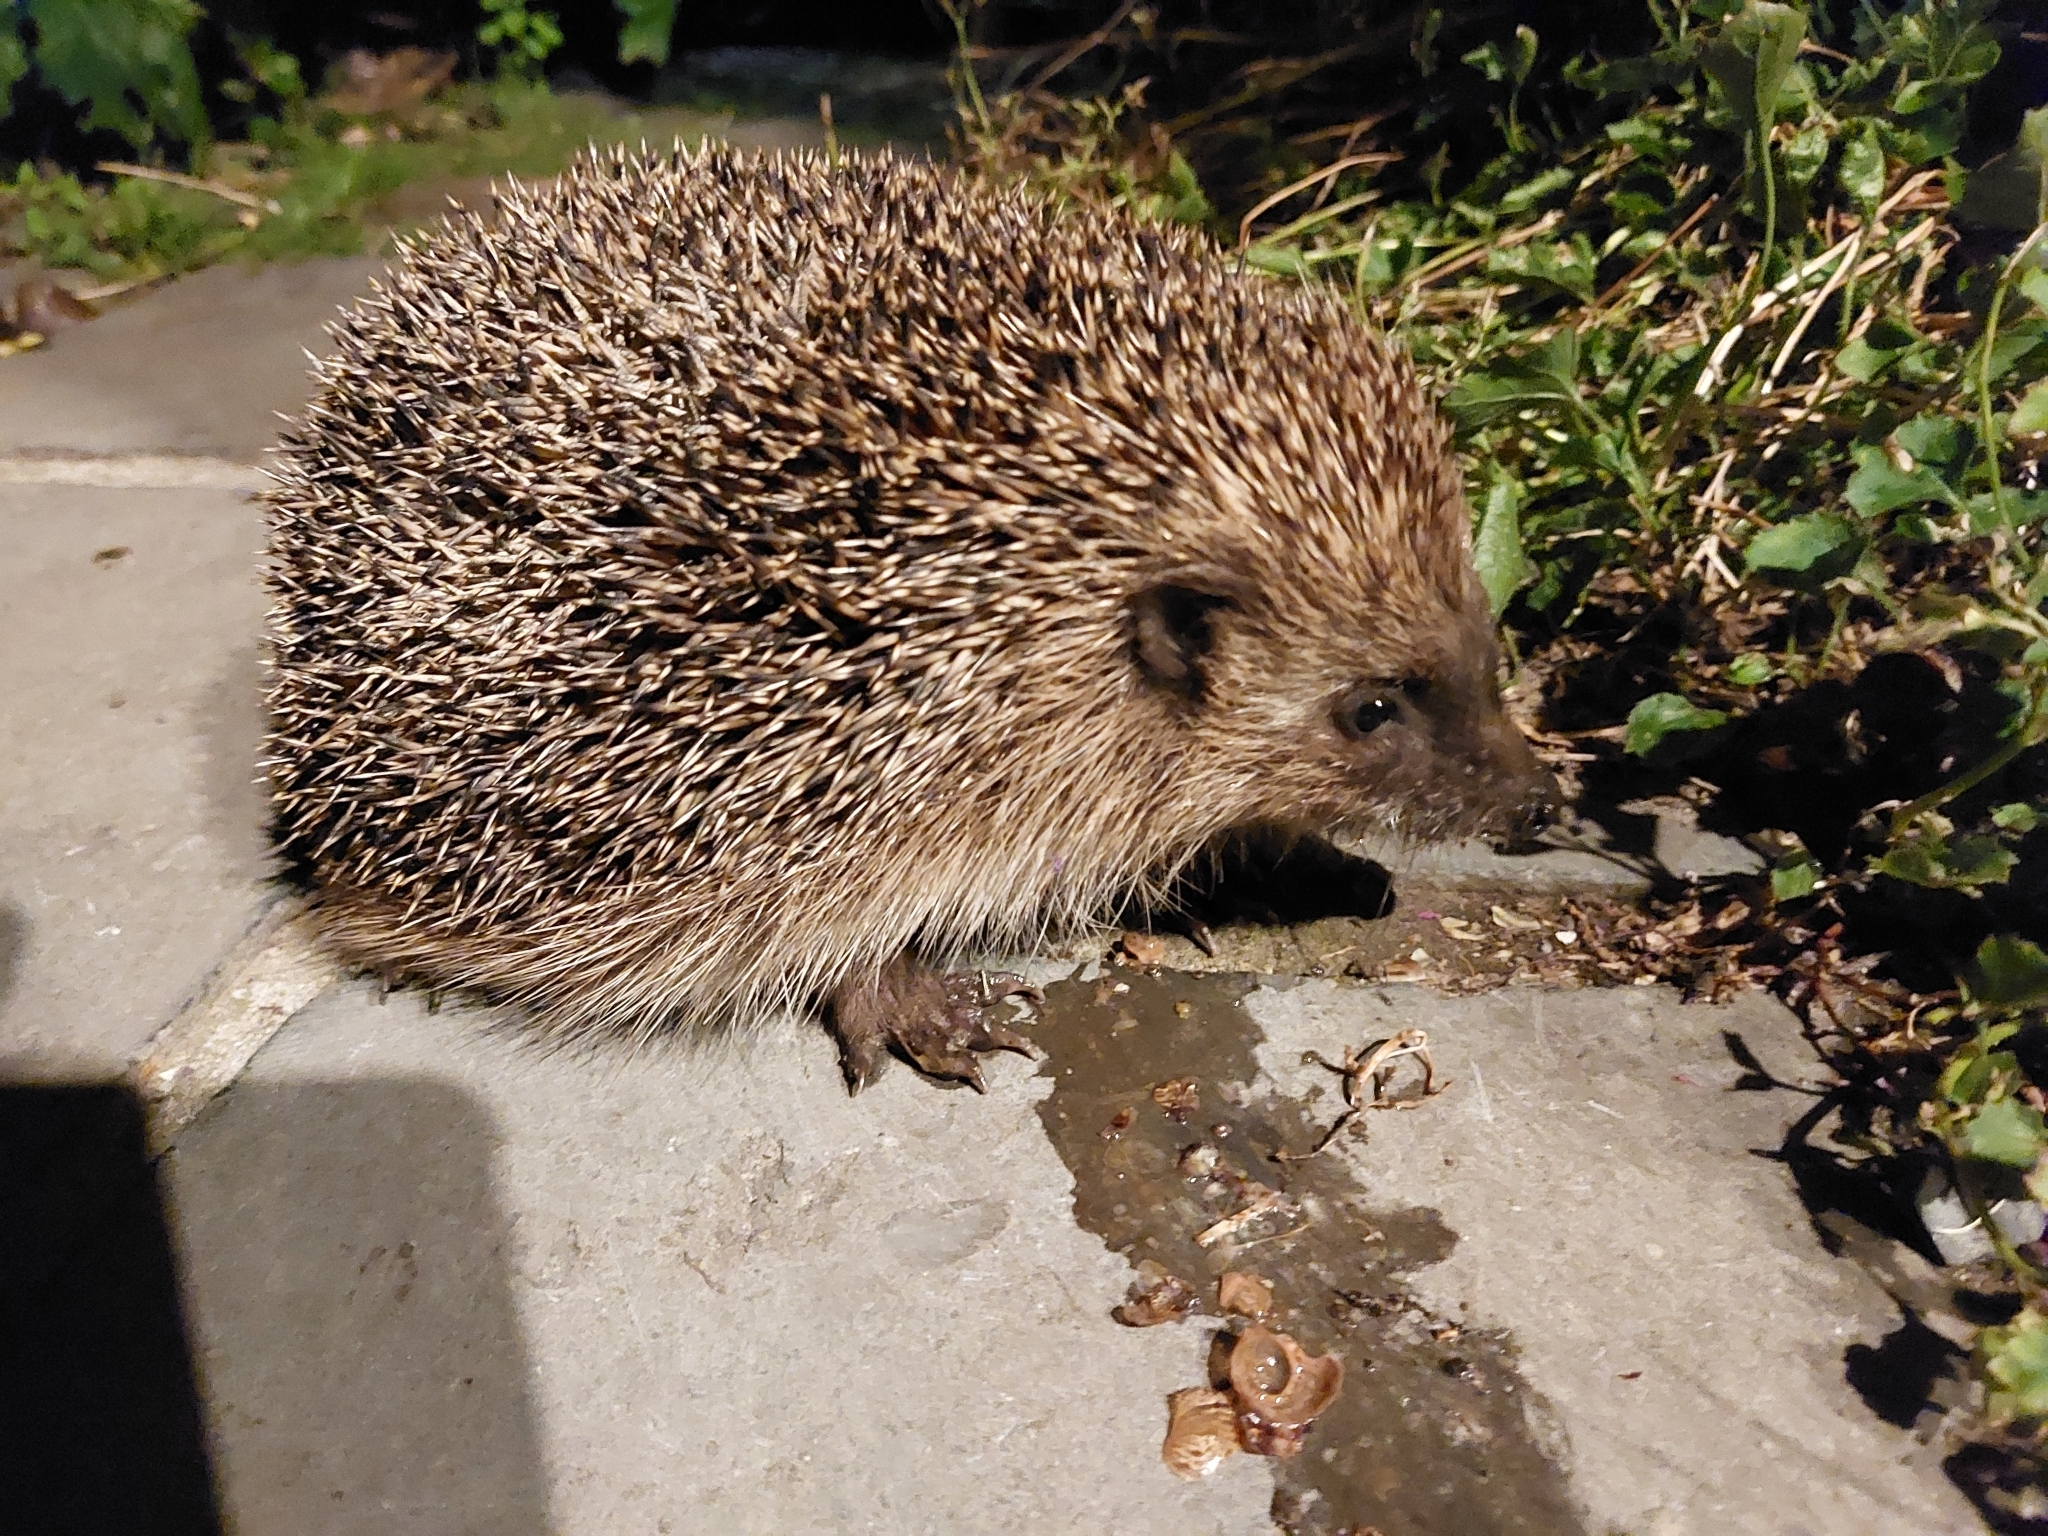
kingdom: Animalia
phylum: Chordata
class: Mammalia
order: Erinaceomorpha
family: Erinaceidae
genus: Erinaceus
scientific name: Erinaceus europaeus
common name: West european hedgehog
